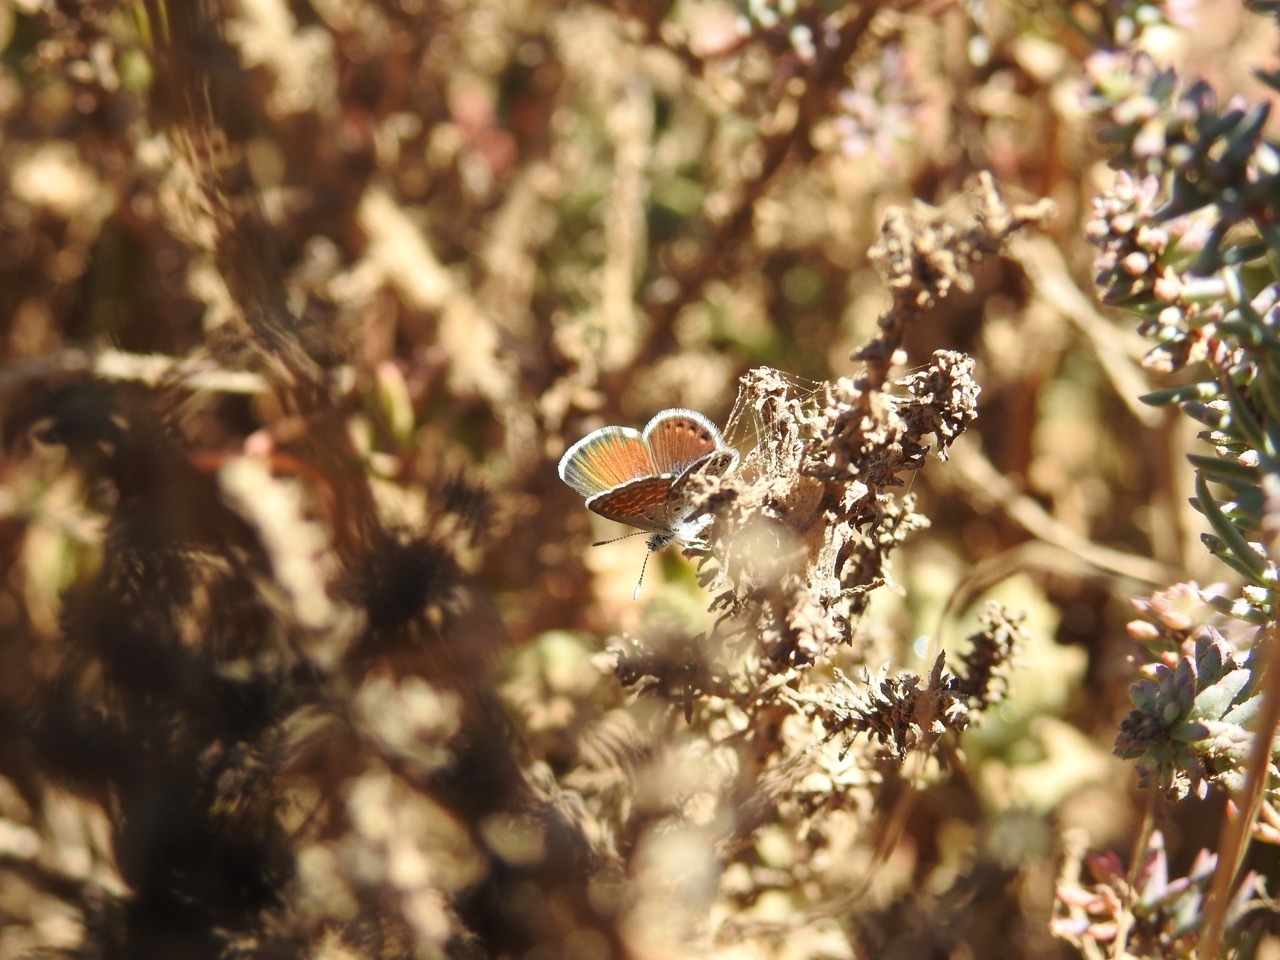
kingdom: Animalia
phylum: Arthropoda
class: Insecta
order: Lepidoptera
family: Lycaenidae
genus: Brephidium
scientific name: Brephidium exilis
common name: Pygmy blue
